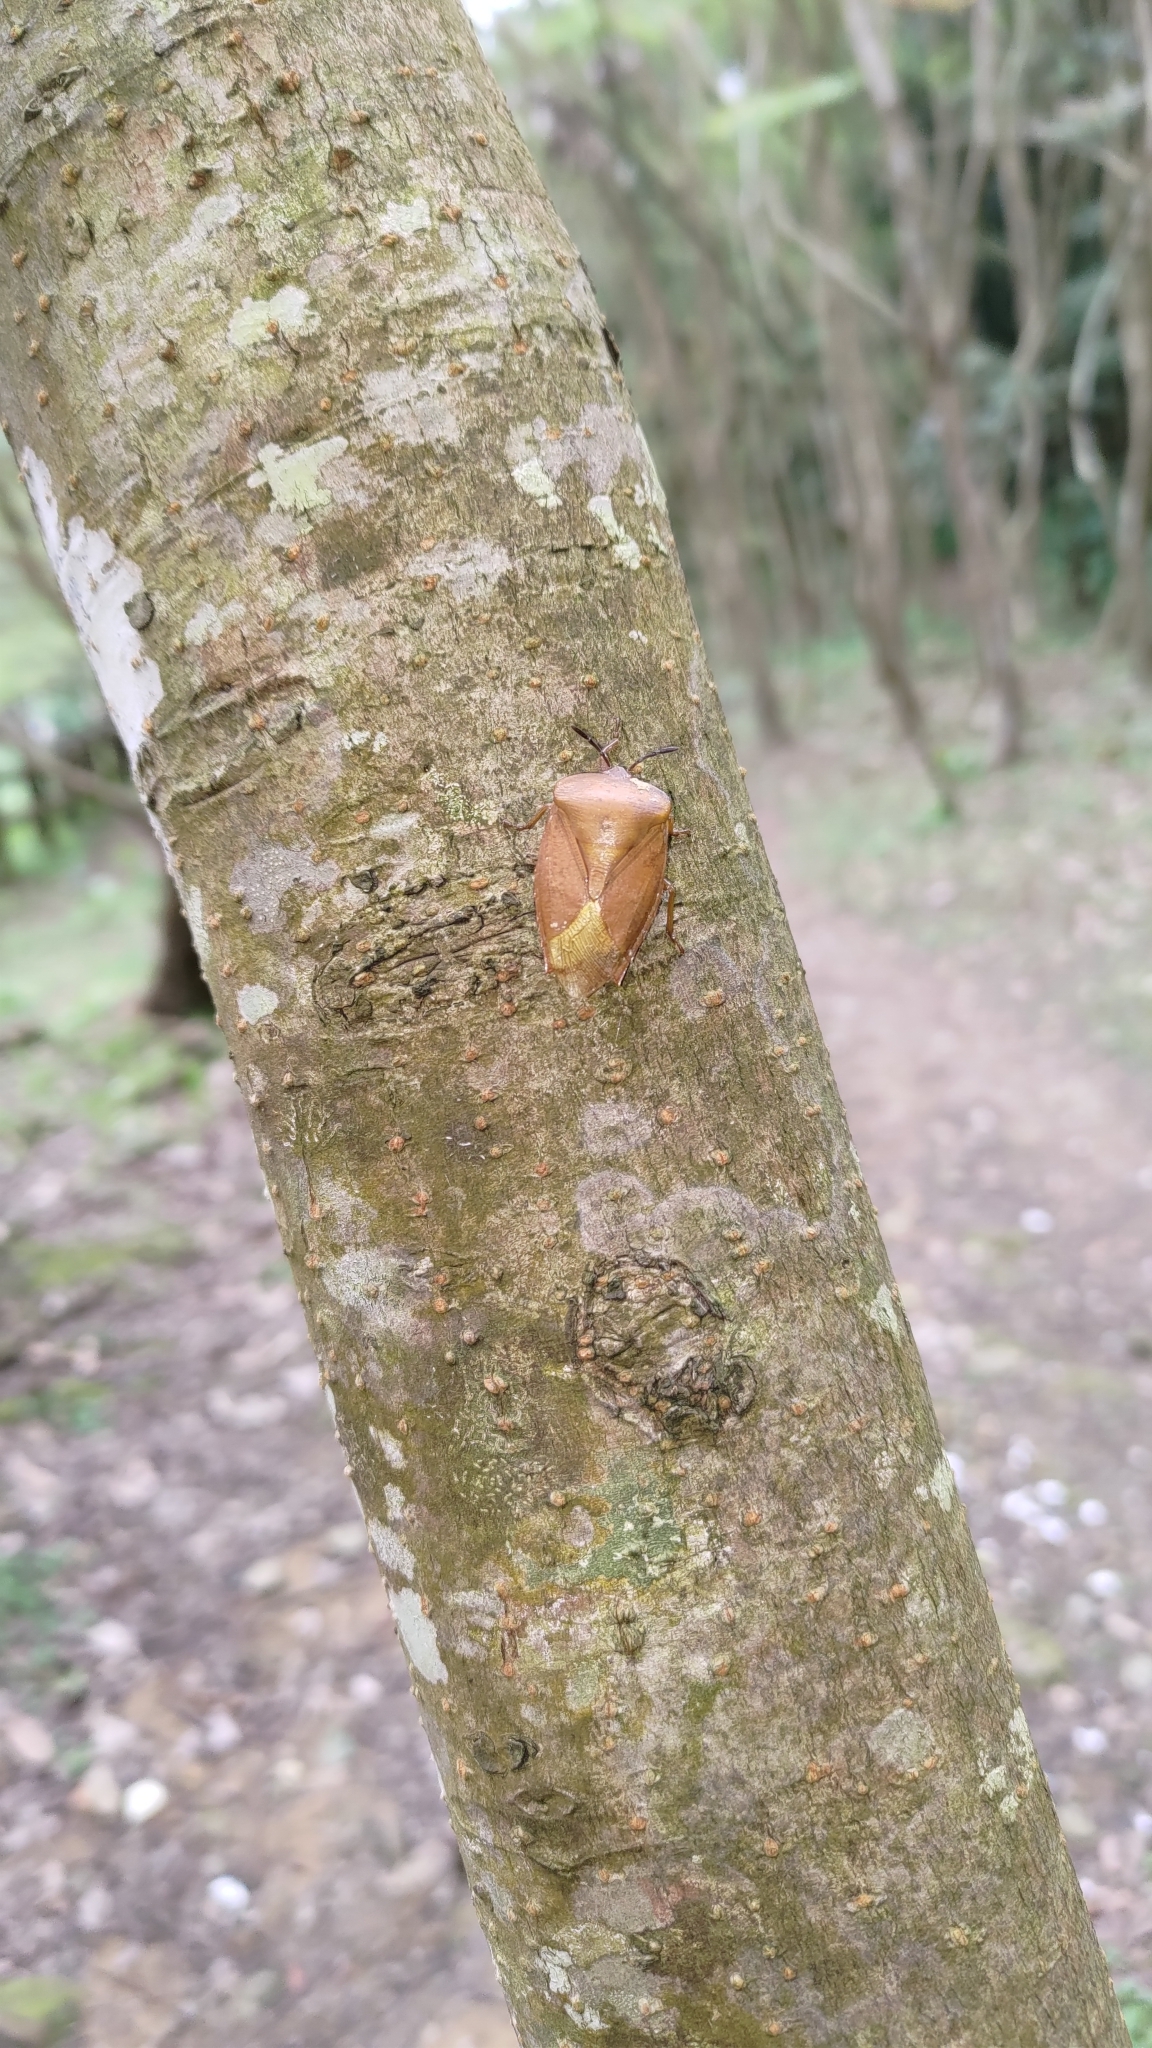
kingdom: Animalia
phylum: Arthropoda
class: Insecta
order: Hemiptera
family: Tessaratomidae
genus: Tessaratoma
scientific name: Tessaratoma papillosa
